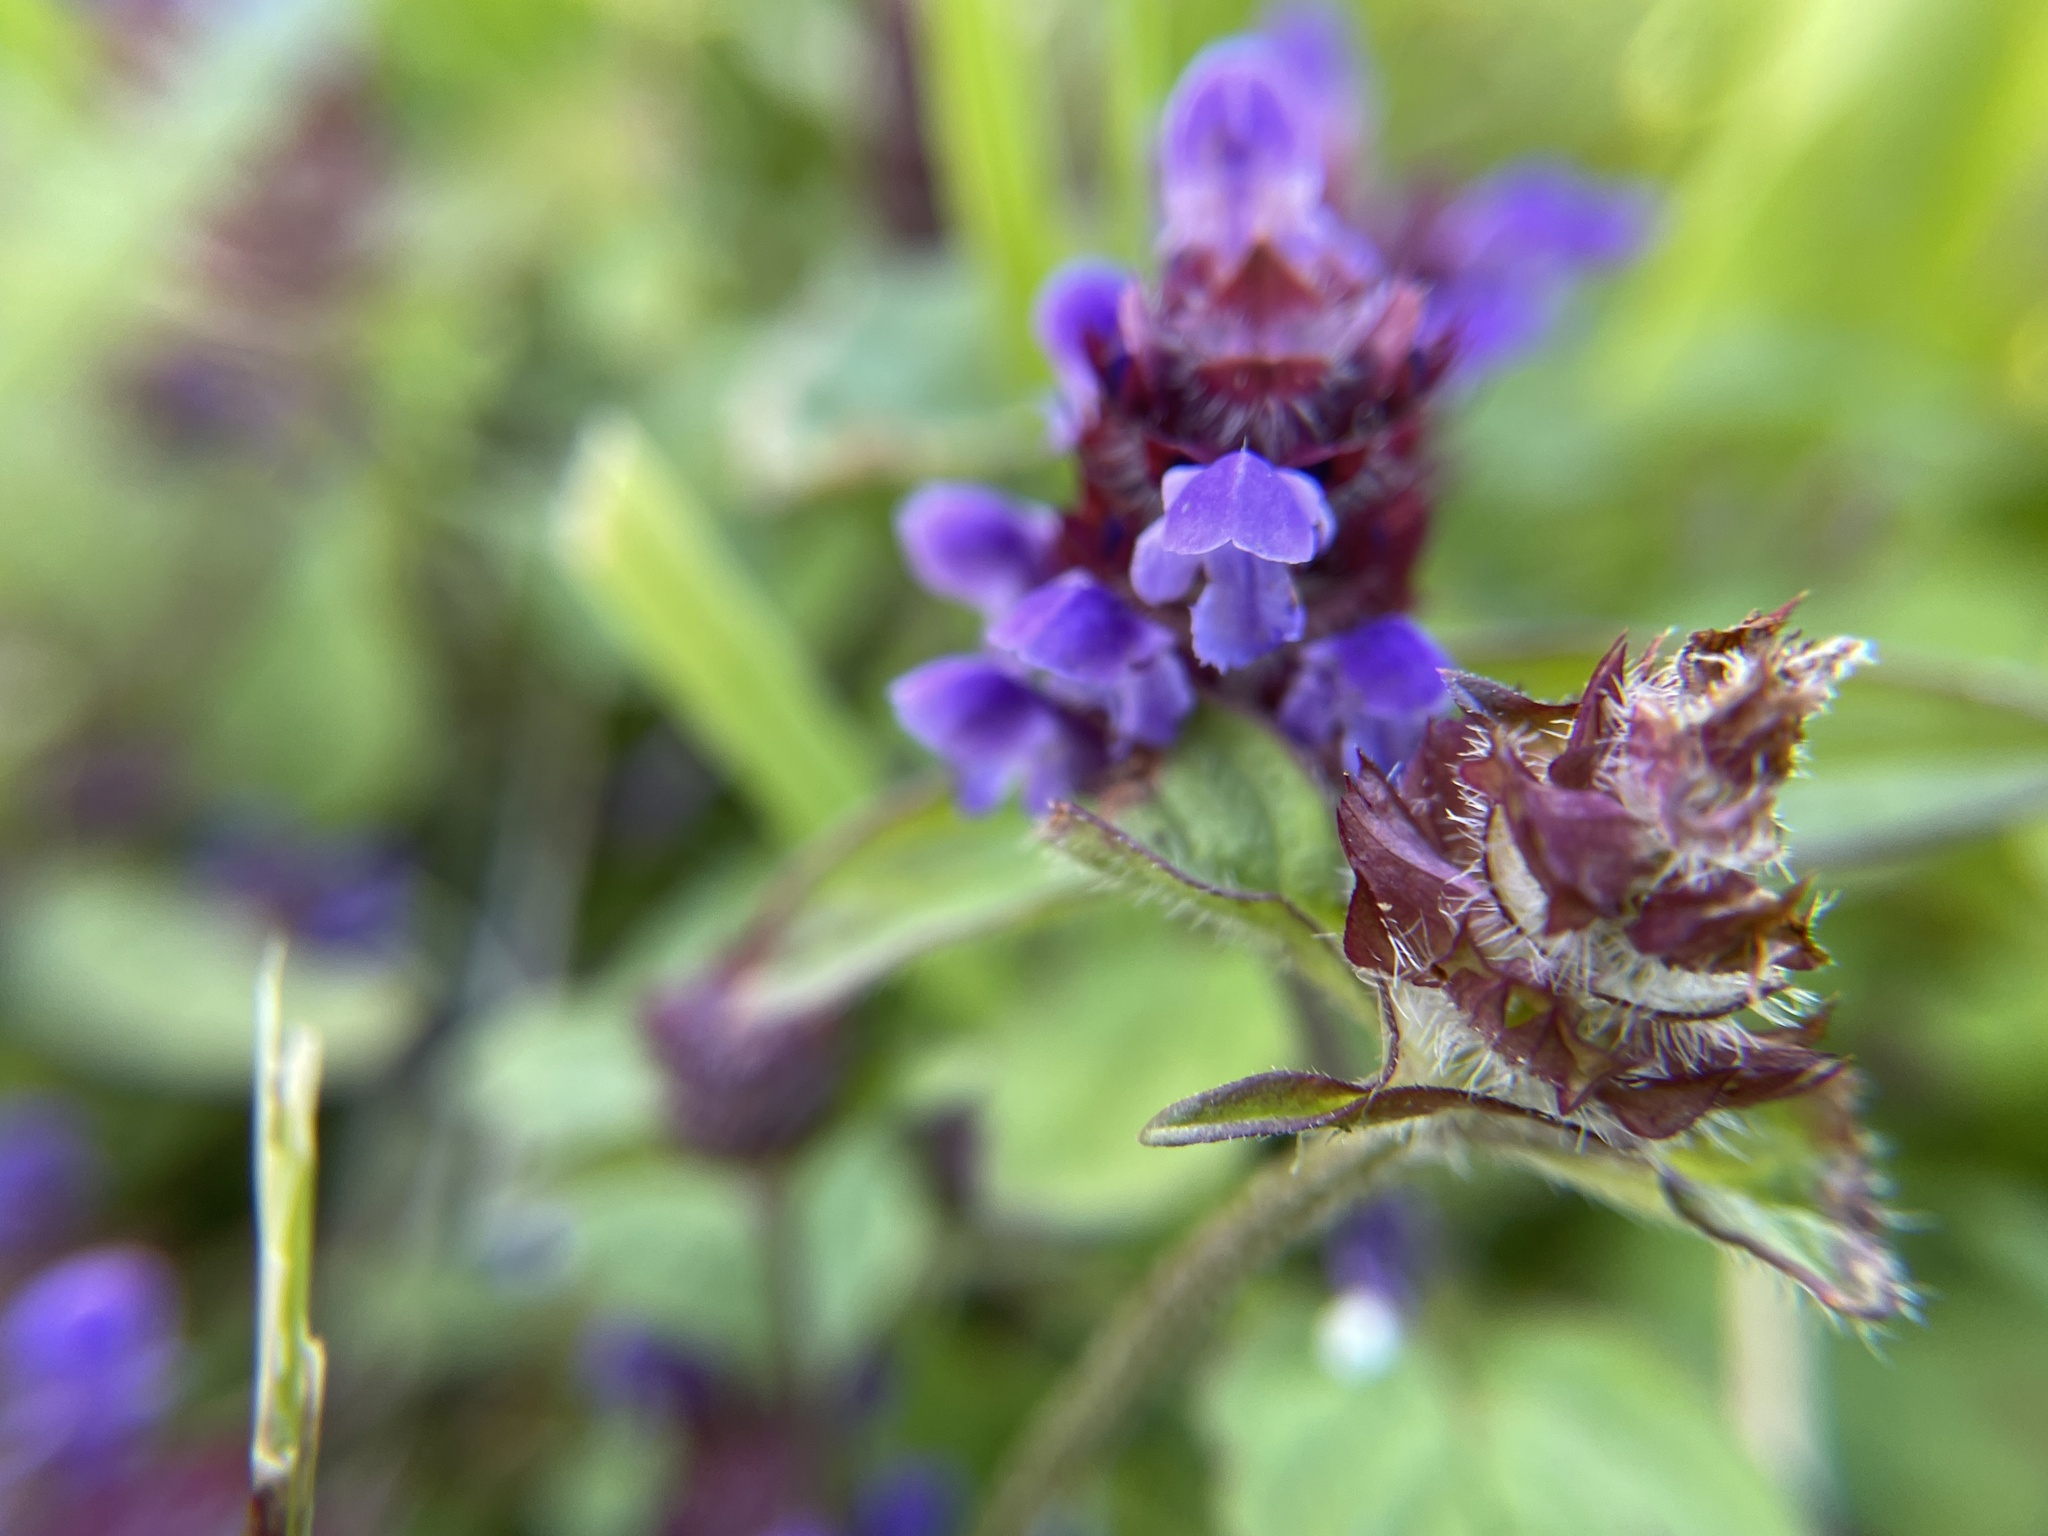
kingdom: Plantae
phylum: Tracheophyta
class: Magnoliopsida
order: Lamiales
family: Lamiaceae
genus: Prunella
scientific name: Prunella vulgaris
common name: Heal-all
